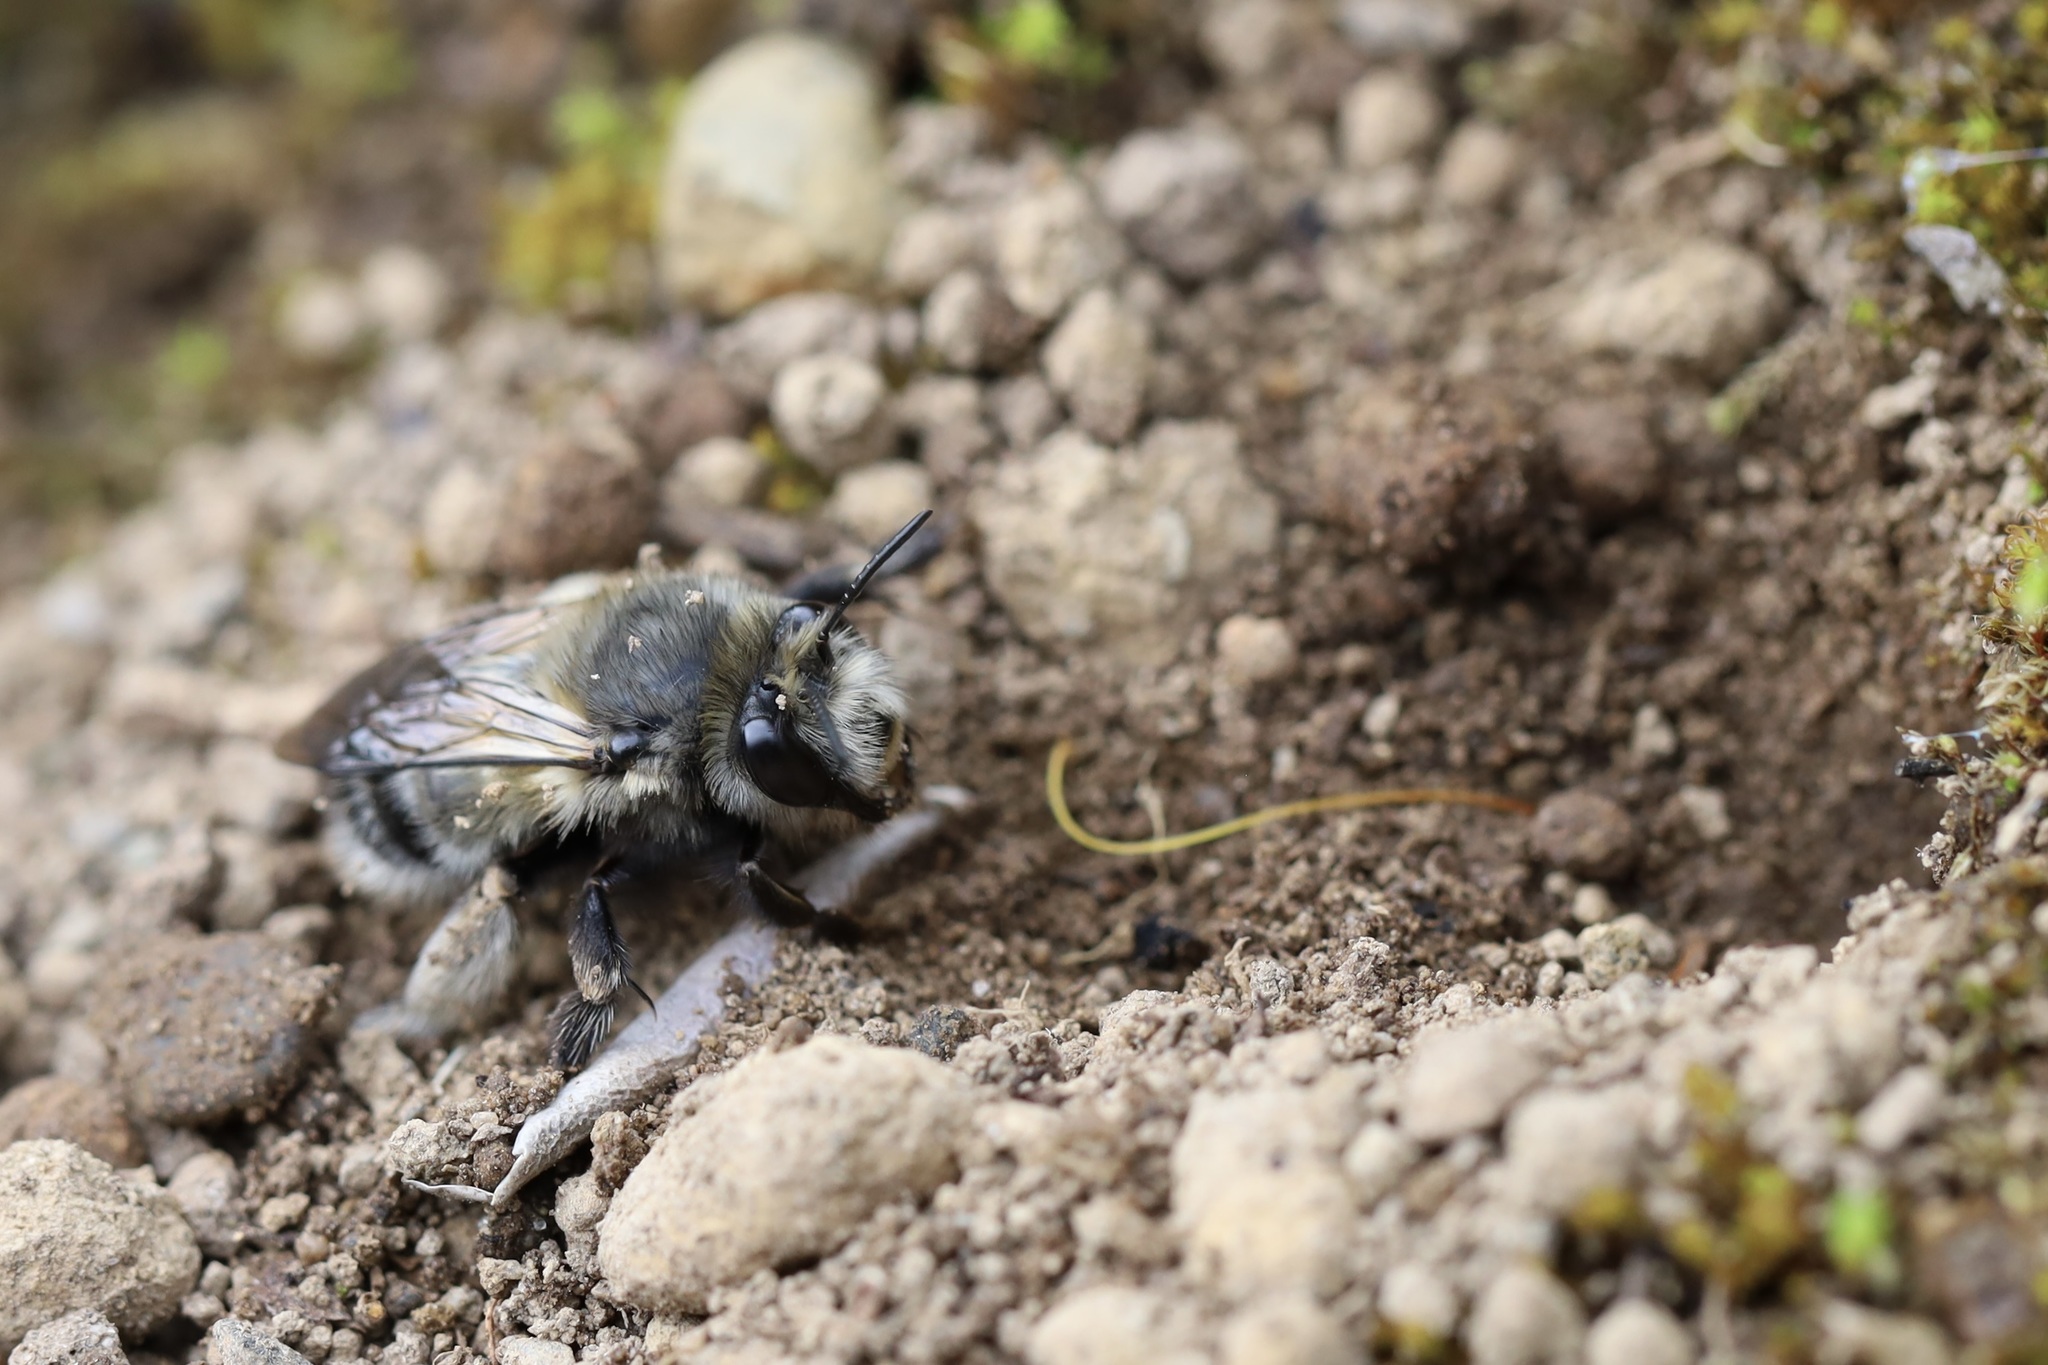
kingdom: Animalia
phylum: Arthropoda
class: Insecta
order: Hymenoptera
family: Apidae
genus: Anthophora
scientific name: Anthophora pacifica
